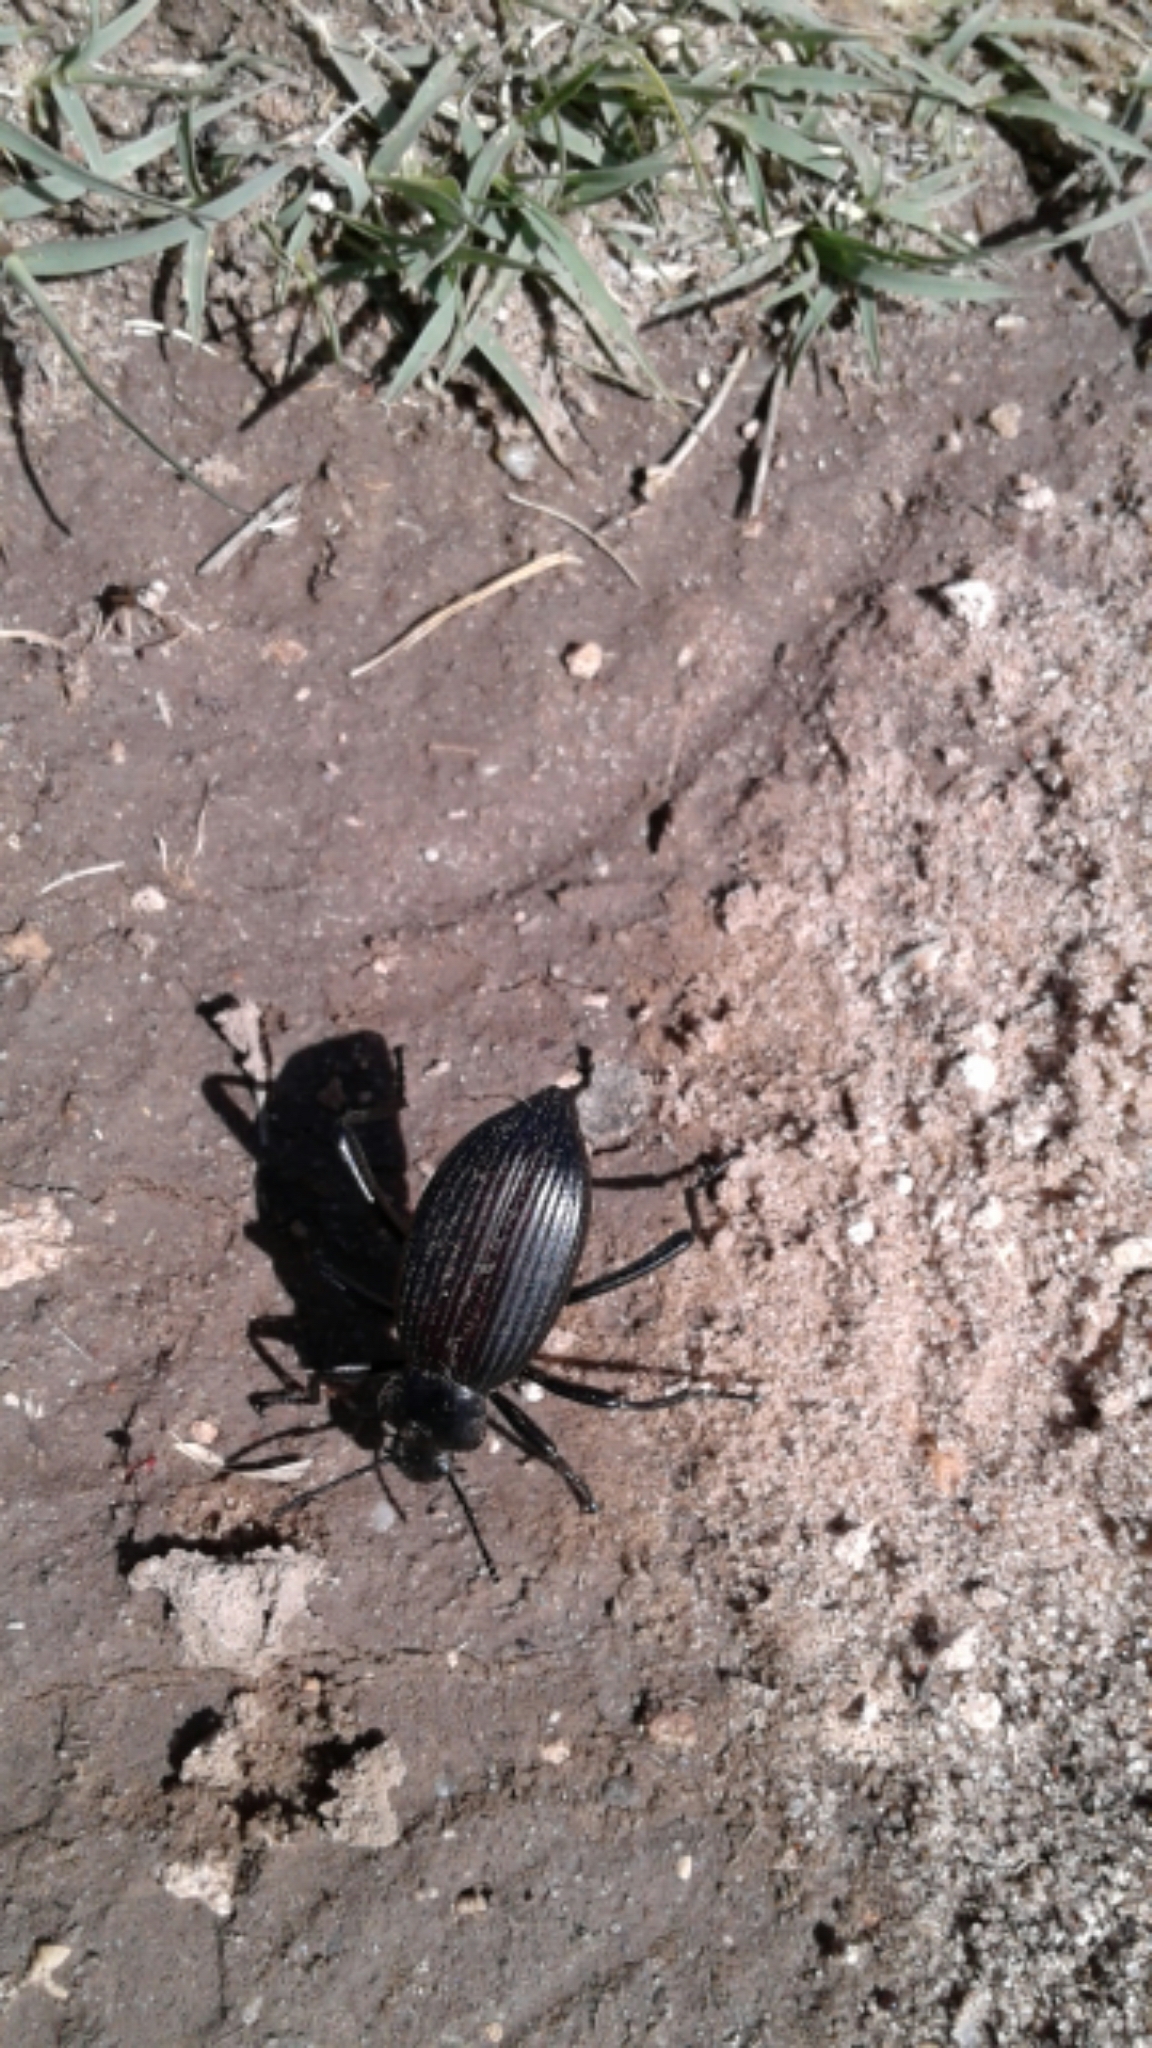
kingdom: Animalia
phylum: Arthropoda
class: Insecta
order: Coleoptera
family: Tenebrionidae
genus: Eleodes
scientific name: Eleodes hispilabris
